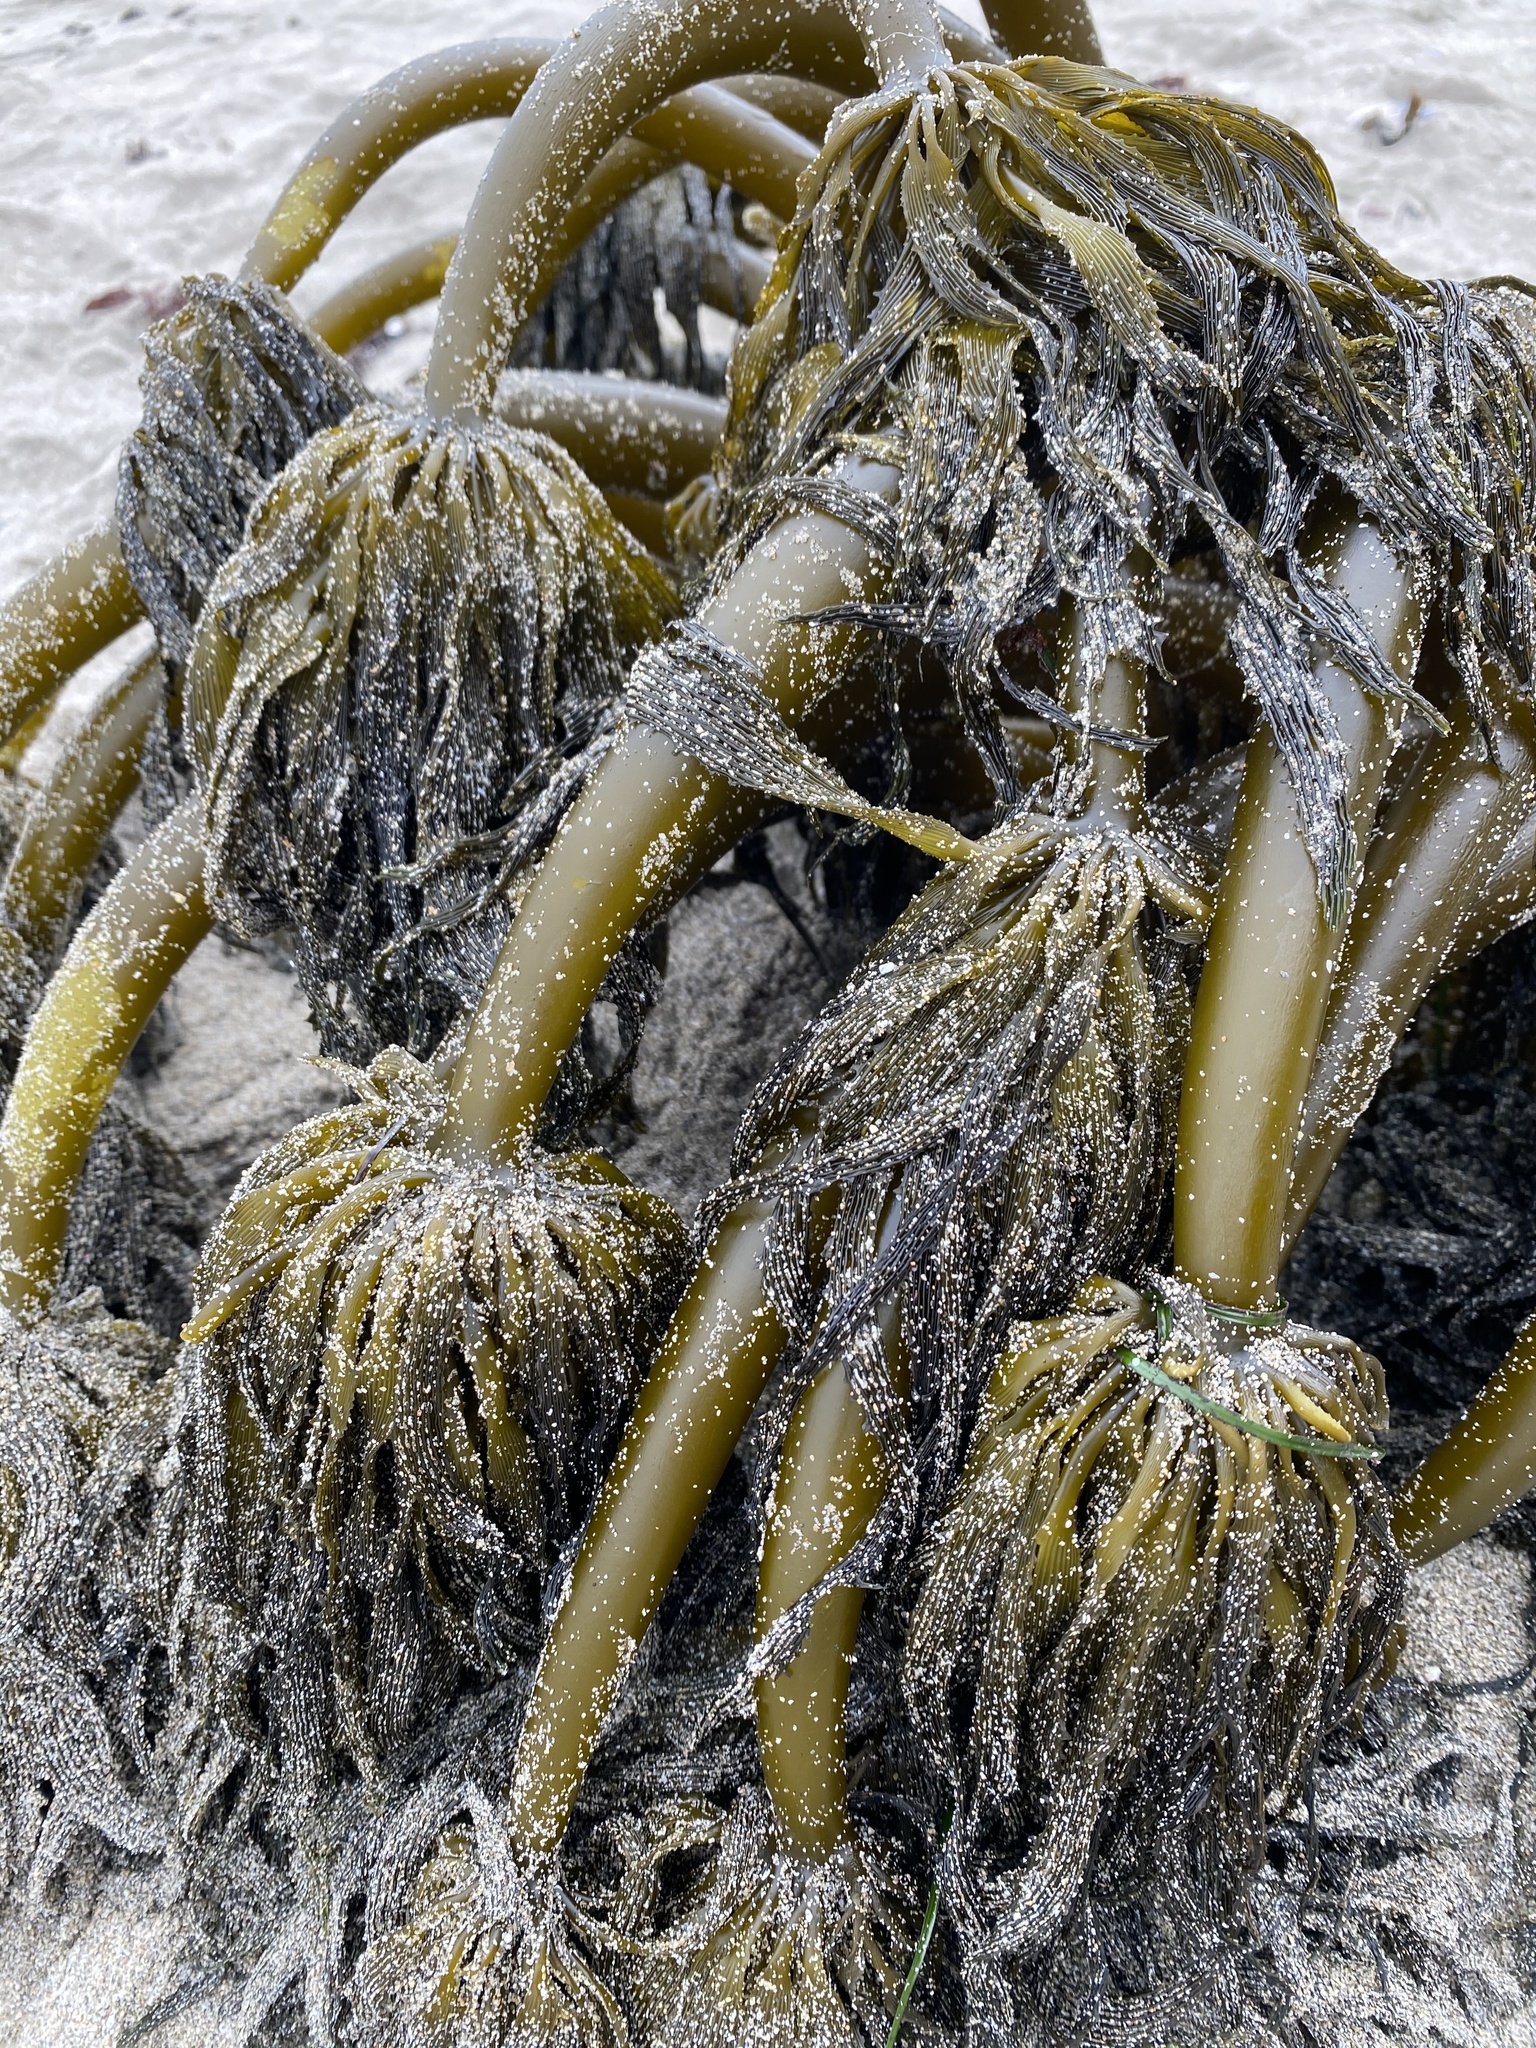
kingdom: Chromista
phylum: Ochrophyta
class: Phaeophyceae
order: Laminariales
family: Laminariaceae
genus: Postelsia
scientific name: Postelsia palmiformis
